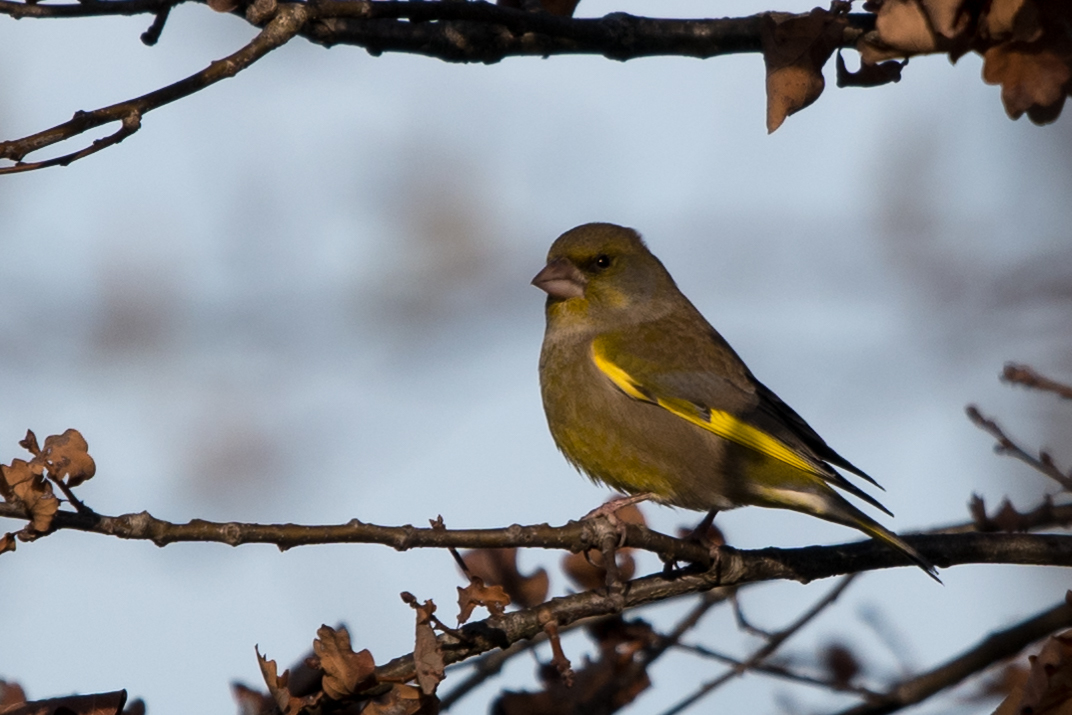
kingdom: Plantae
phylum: Tracheophyta
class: Liliopsida
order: Poales
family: Poaceae
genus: Chloris
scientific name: Chloris chloris
